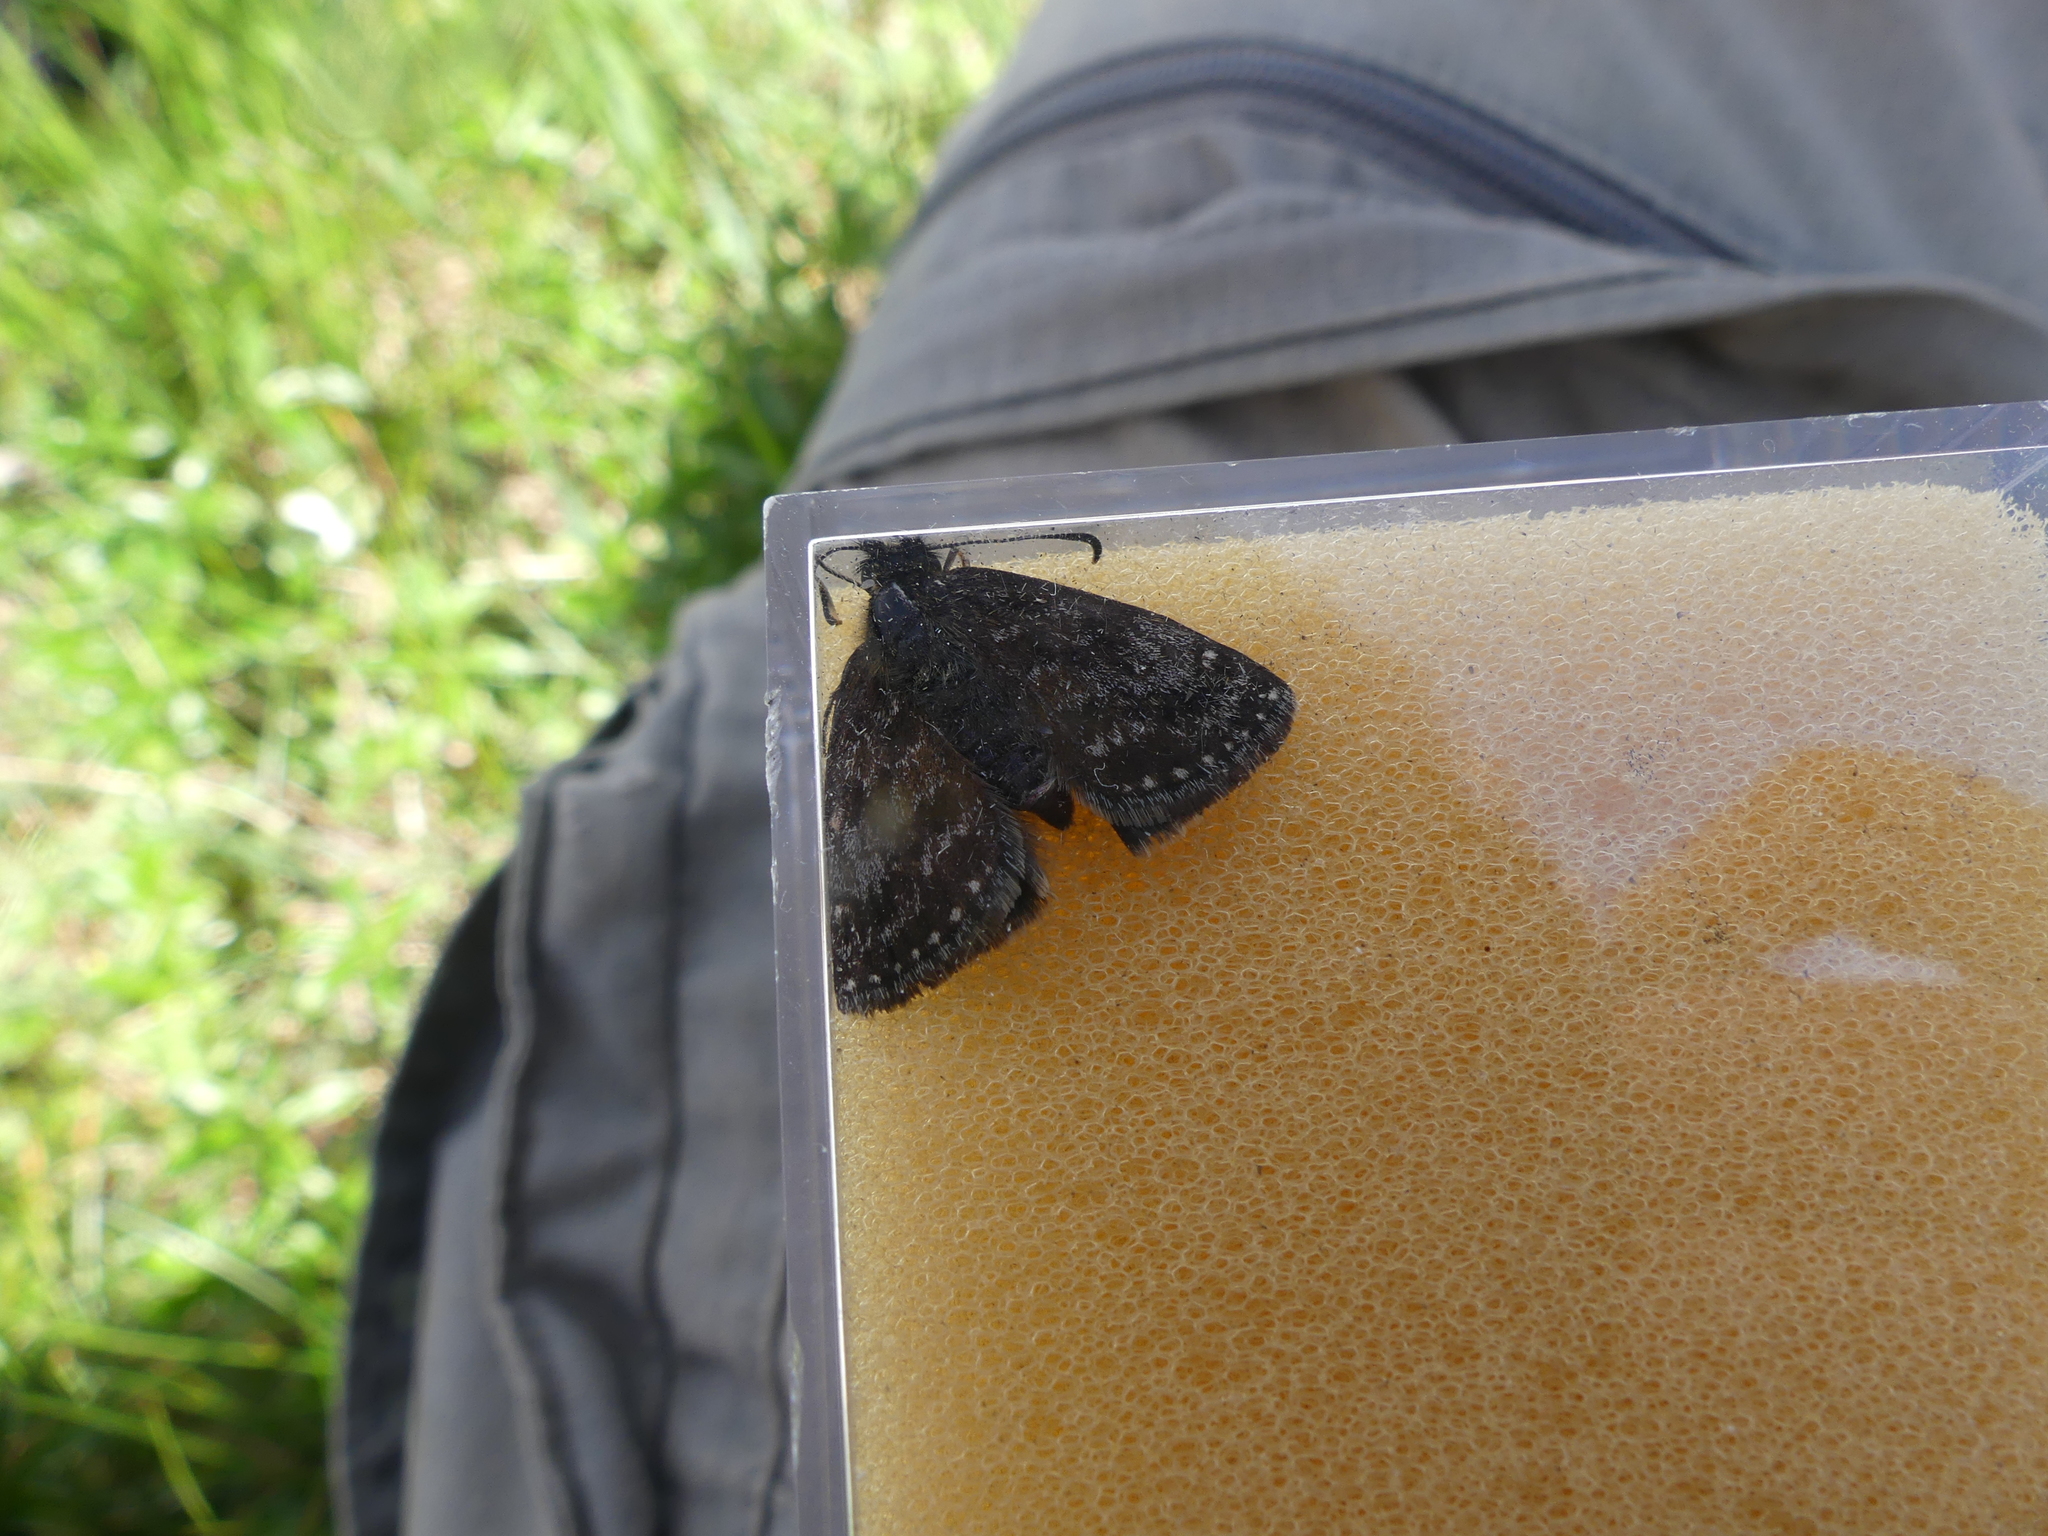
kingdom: Animalia
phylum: Arthropoda
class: Insecta
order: Lepidoptera
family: Hesperiidae
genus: Erynnis
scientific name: Erynnis tages
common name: Dingy skipper
